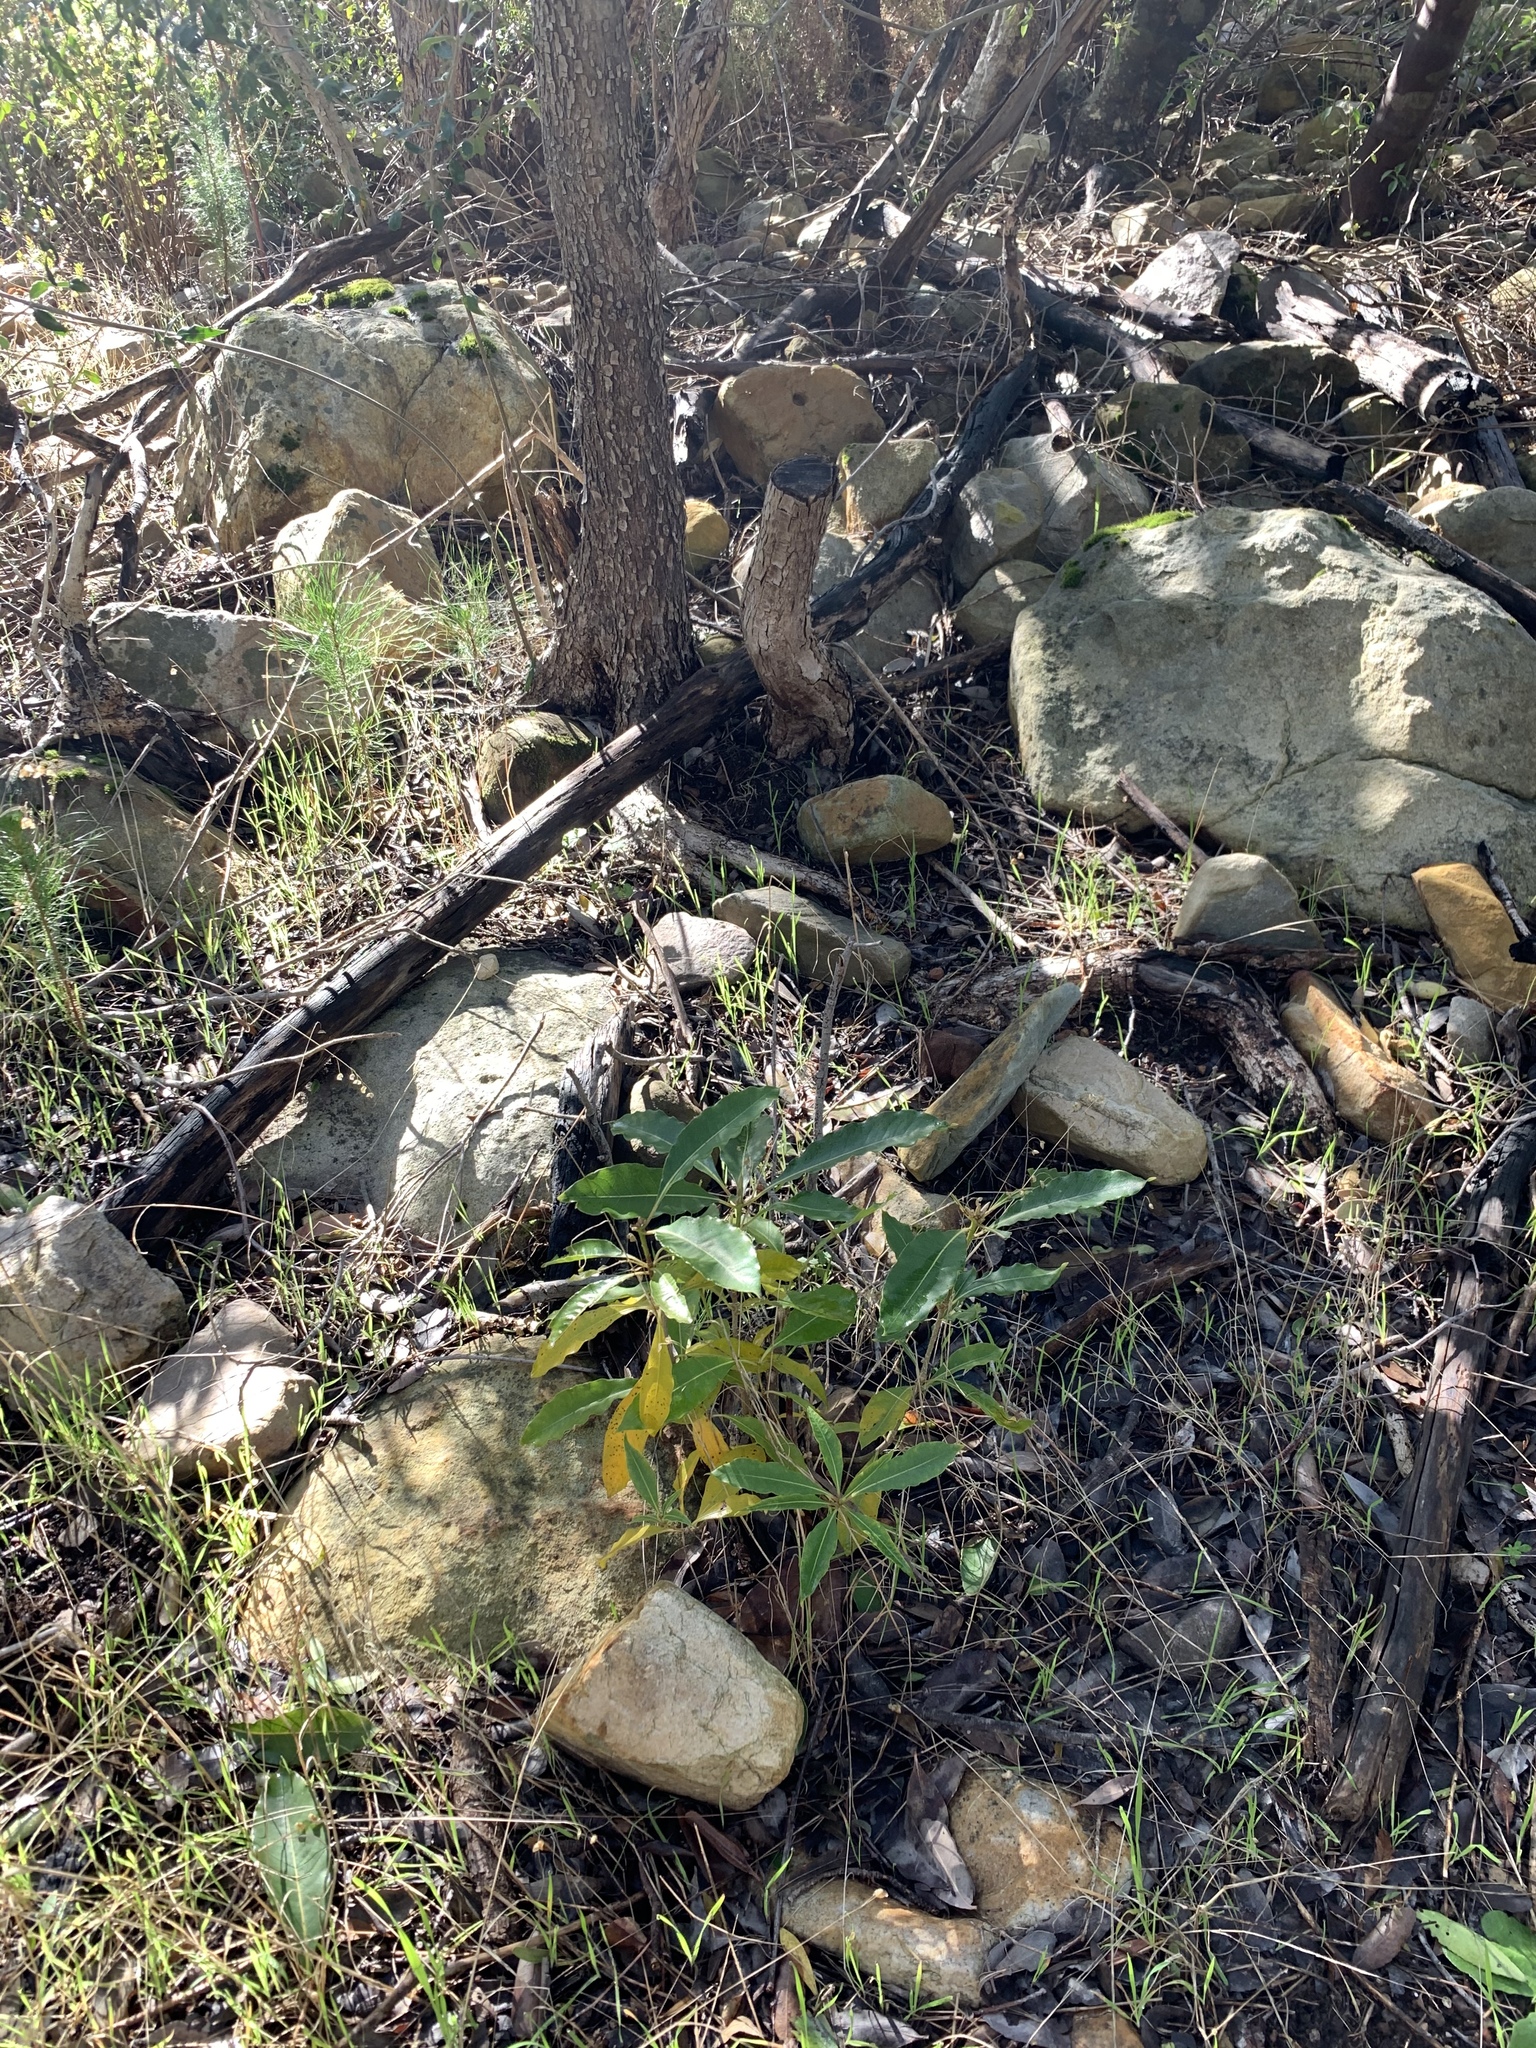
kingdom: Plantae
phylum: Tracheophyta
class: Magnoliopsida
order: Apiales
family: Pittosporaceae
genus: Pittosporum
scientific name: Pittosporum undulatum
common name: Australian cheesewood
